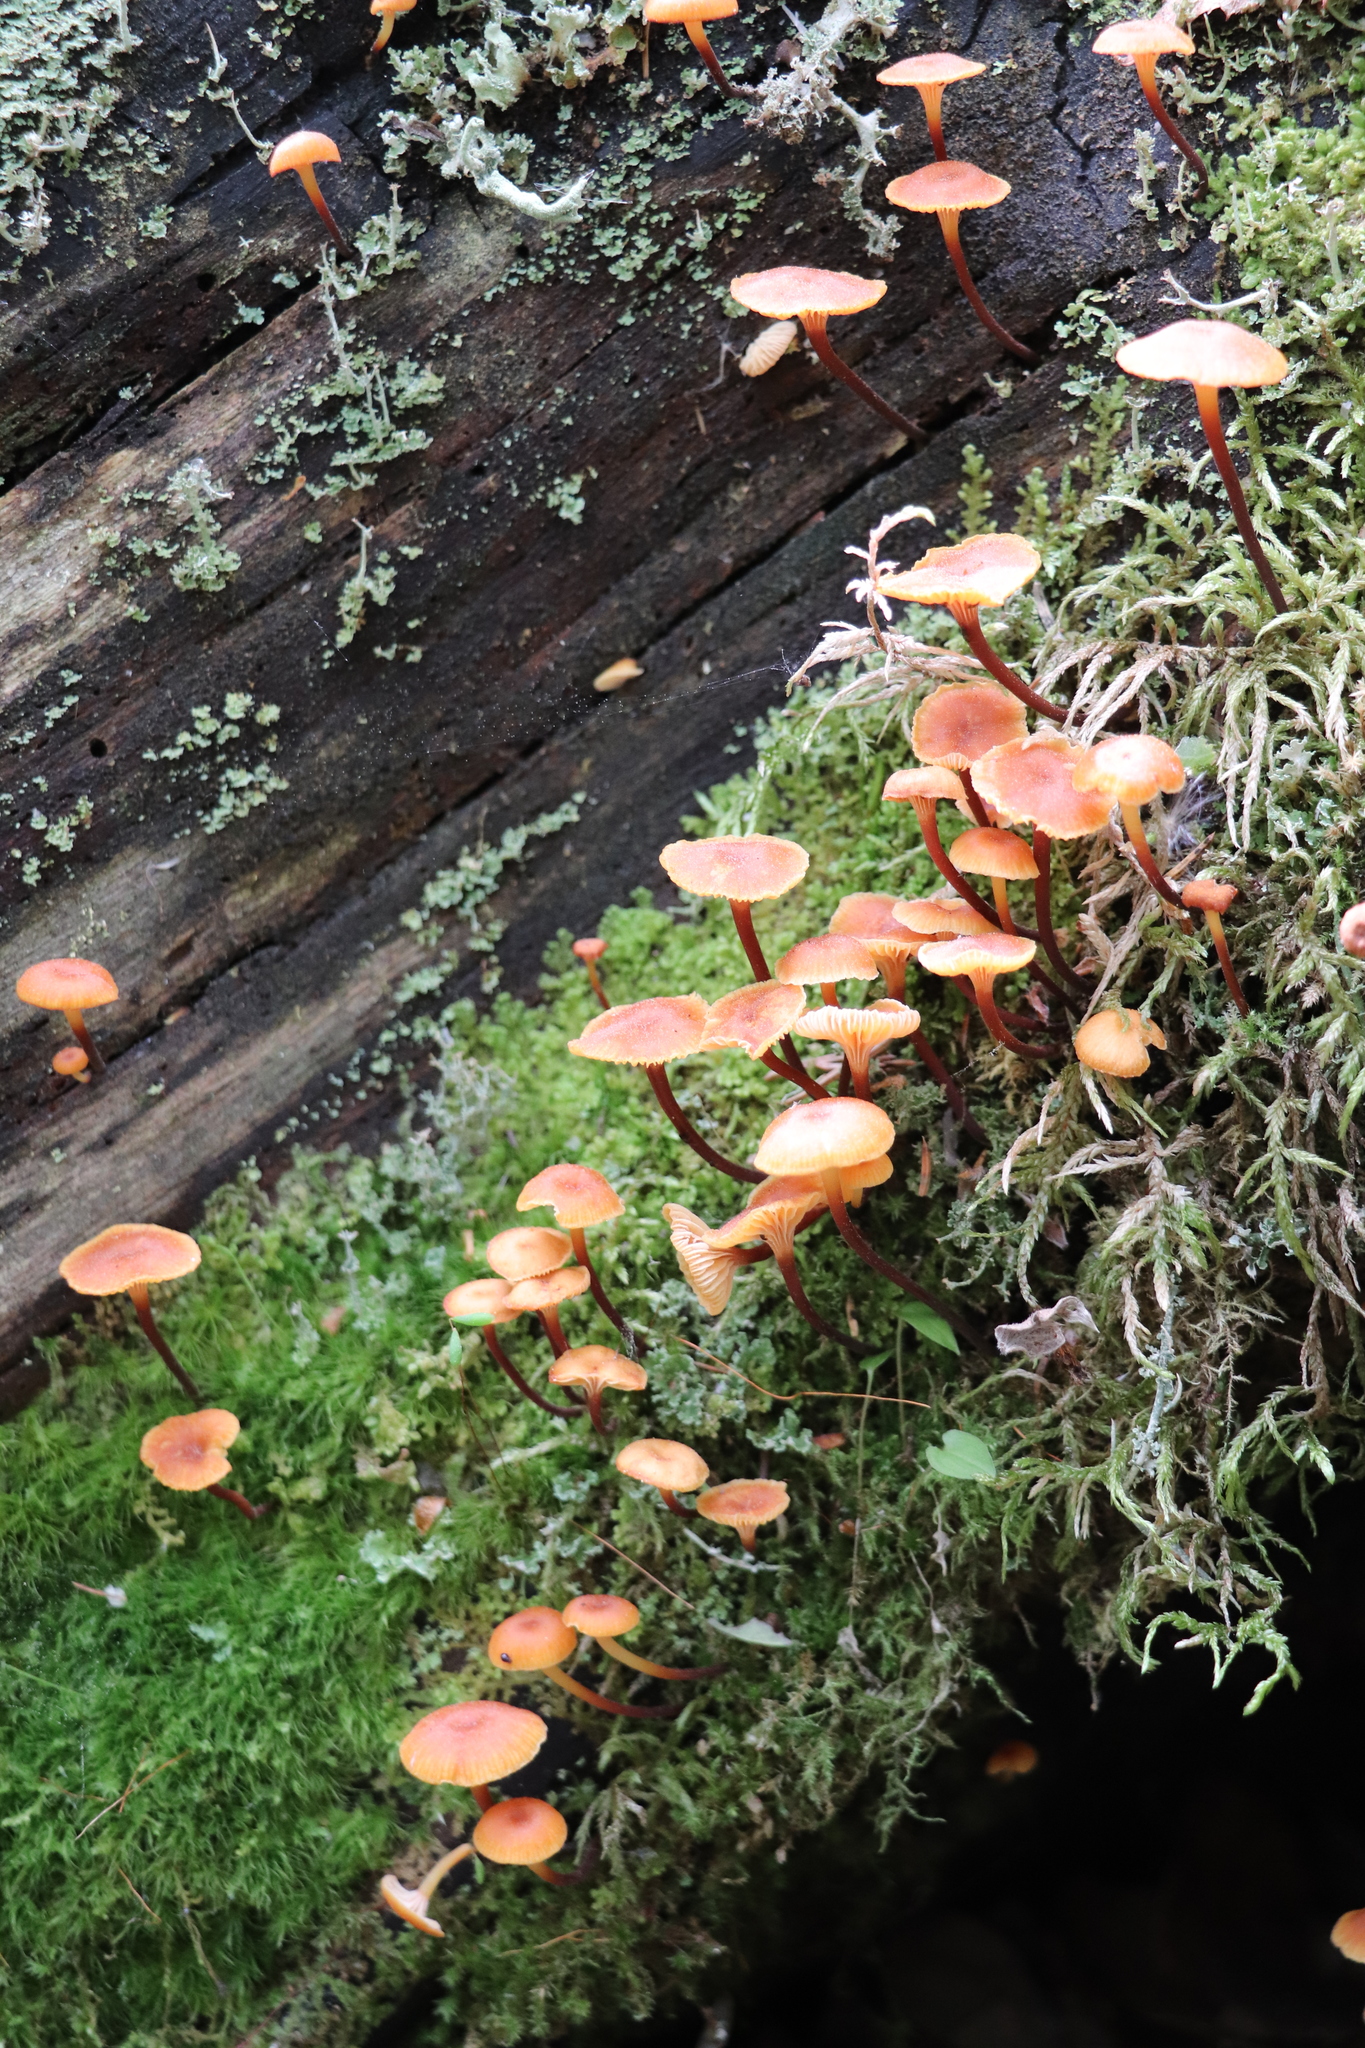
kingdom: Fungi
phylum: Basidiomycota
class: Agaricomycetes
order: Agaricales
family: Mycenaceae
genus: Xeromphalina
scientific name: Xeromphalina campanella
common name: Pinewood gingertail
